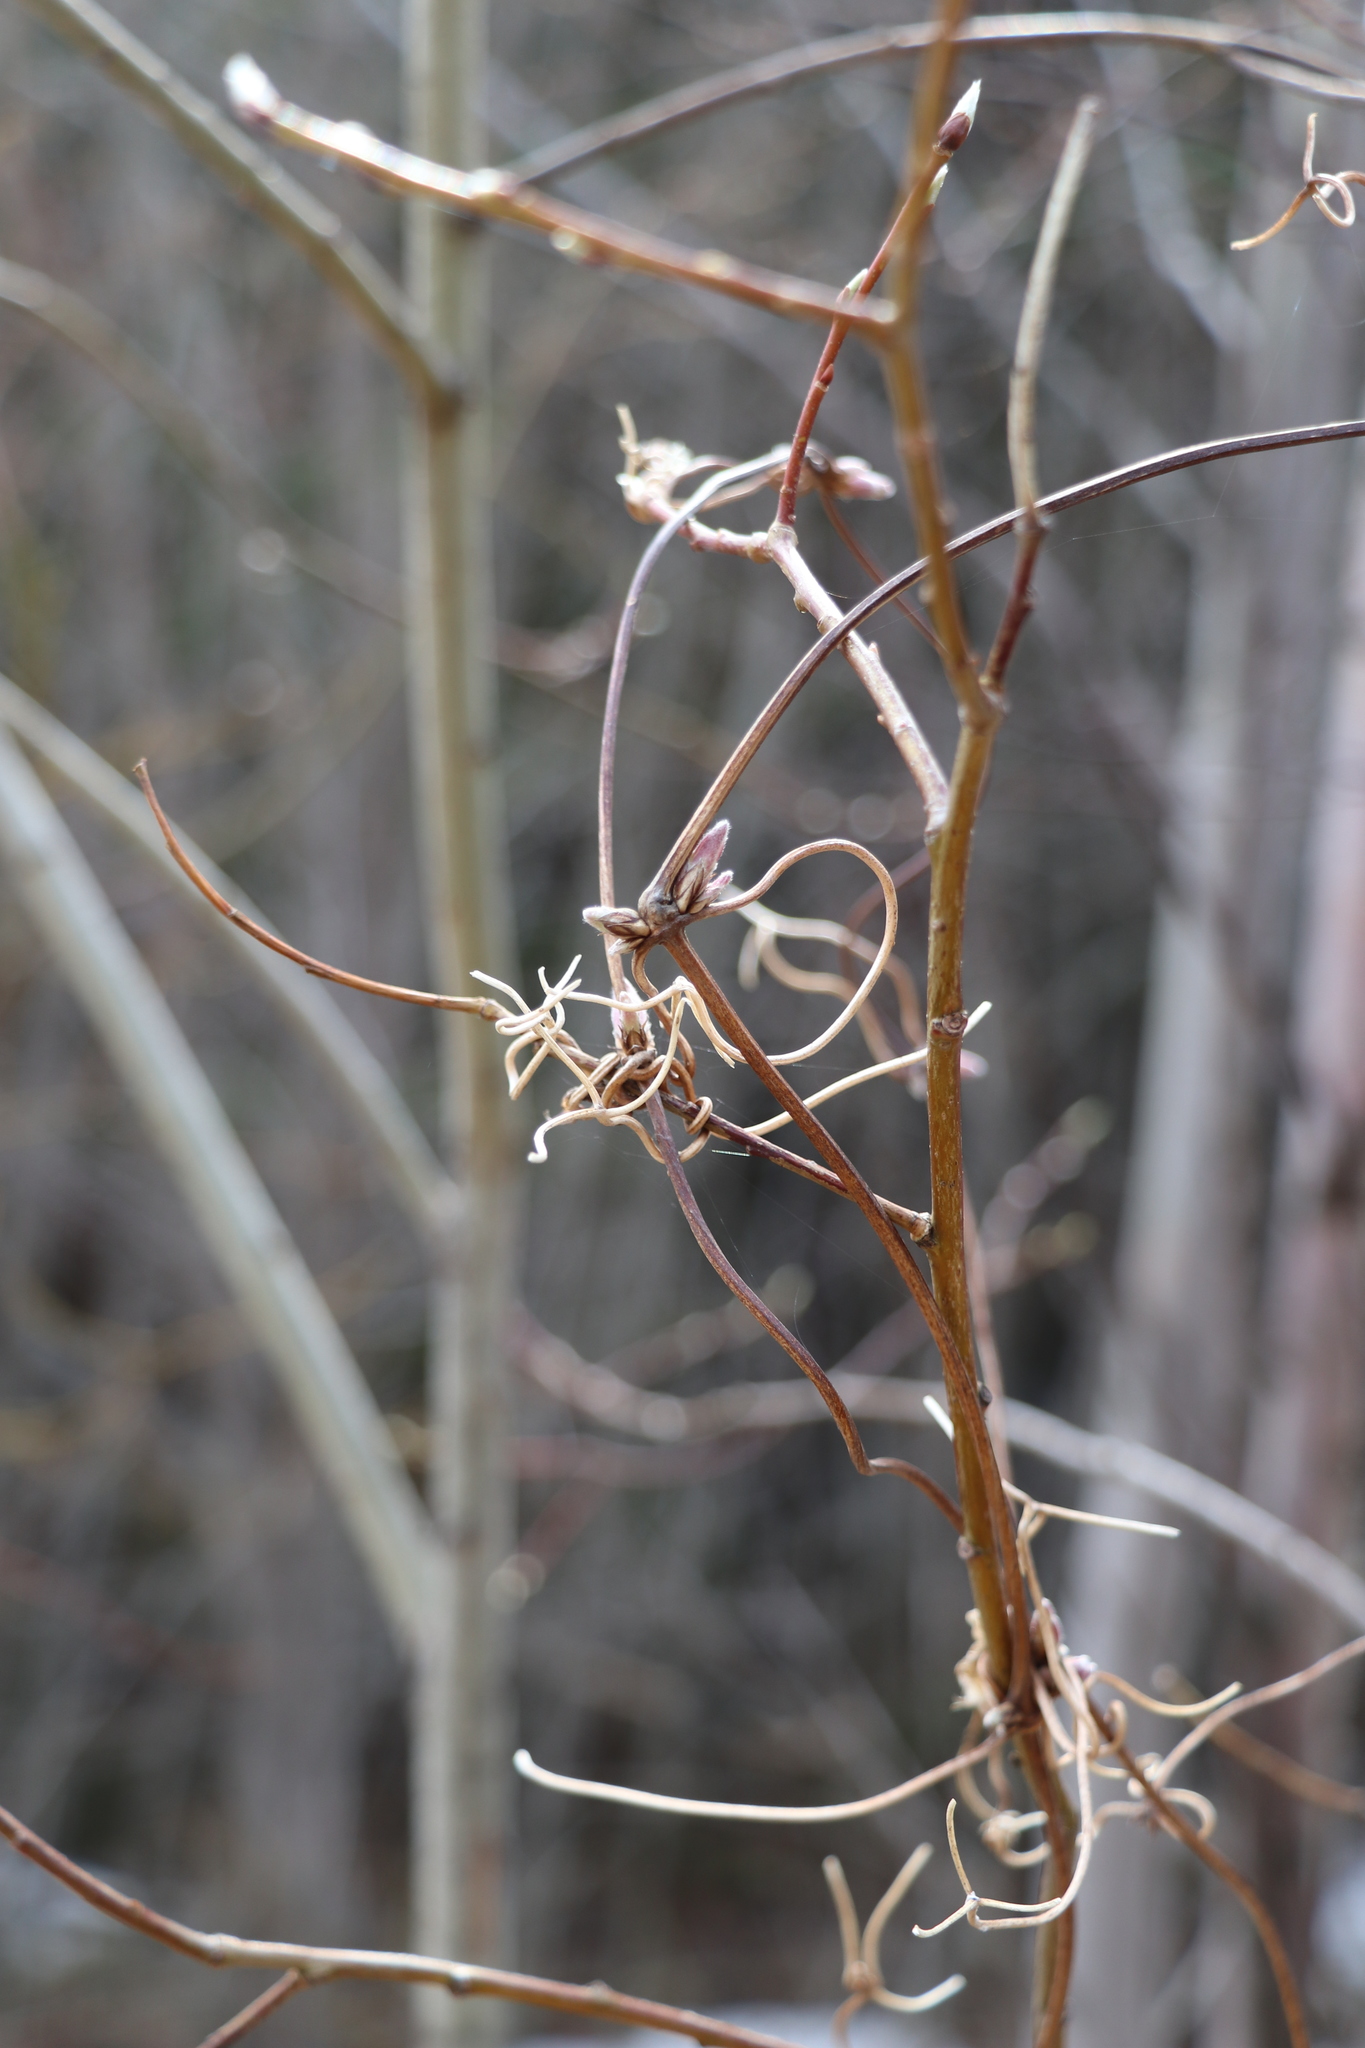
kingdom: Plantae
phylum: Tracheophyta
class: Magnoliopsida
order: Ranunculales
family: Ranunculaceae
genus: Clematis
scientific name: Clematis sibirica
